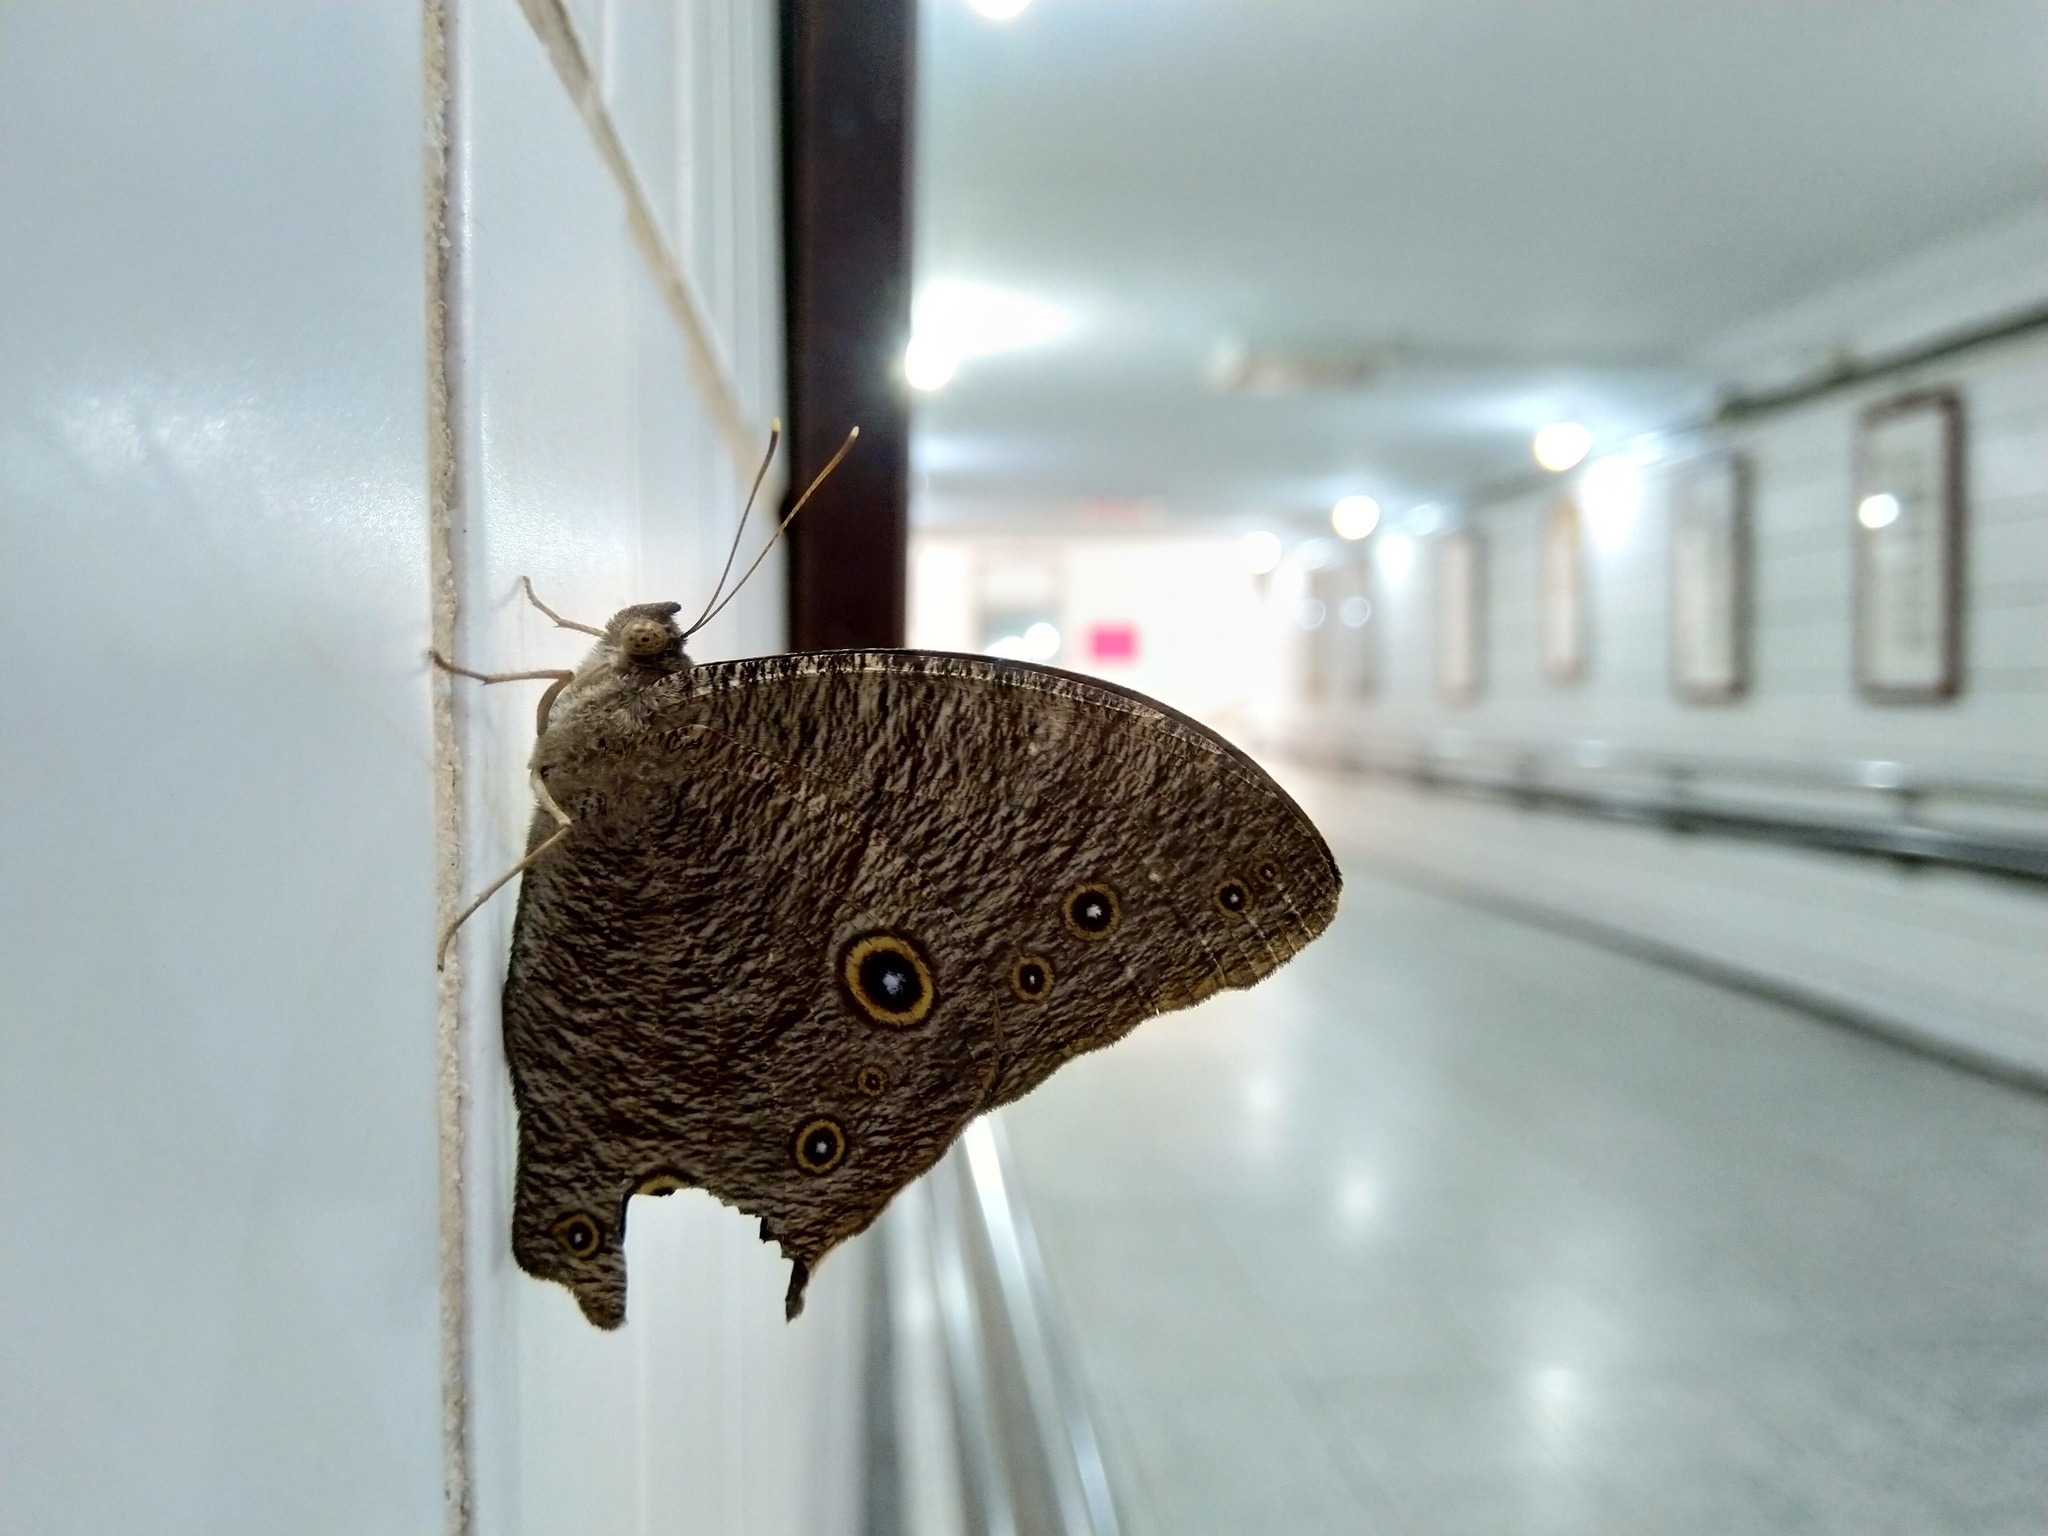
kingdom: Animalia
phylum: Arthropoda
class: Insecta
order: Lepidoptera
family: Nymphalidae
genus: Melanitis
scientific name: Melanitis leda
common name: Twilight brown
